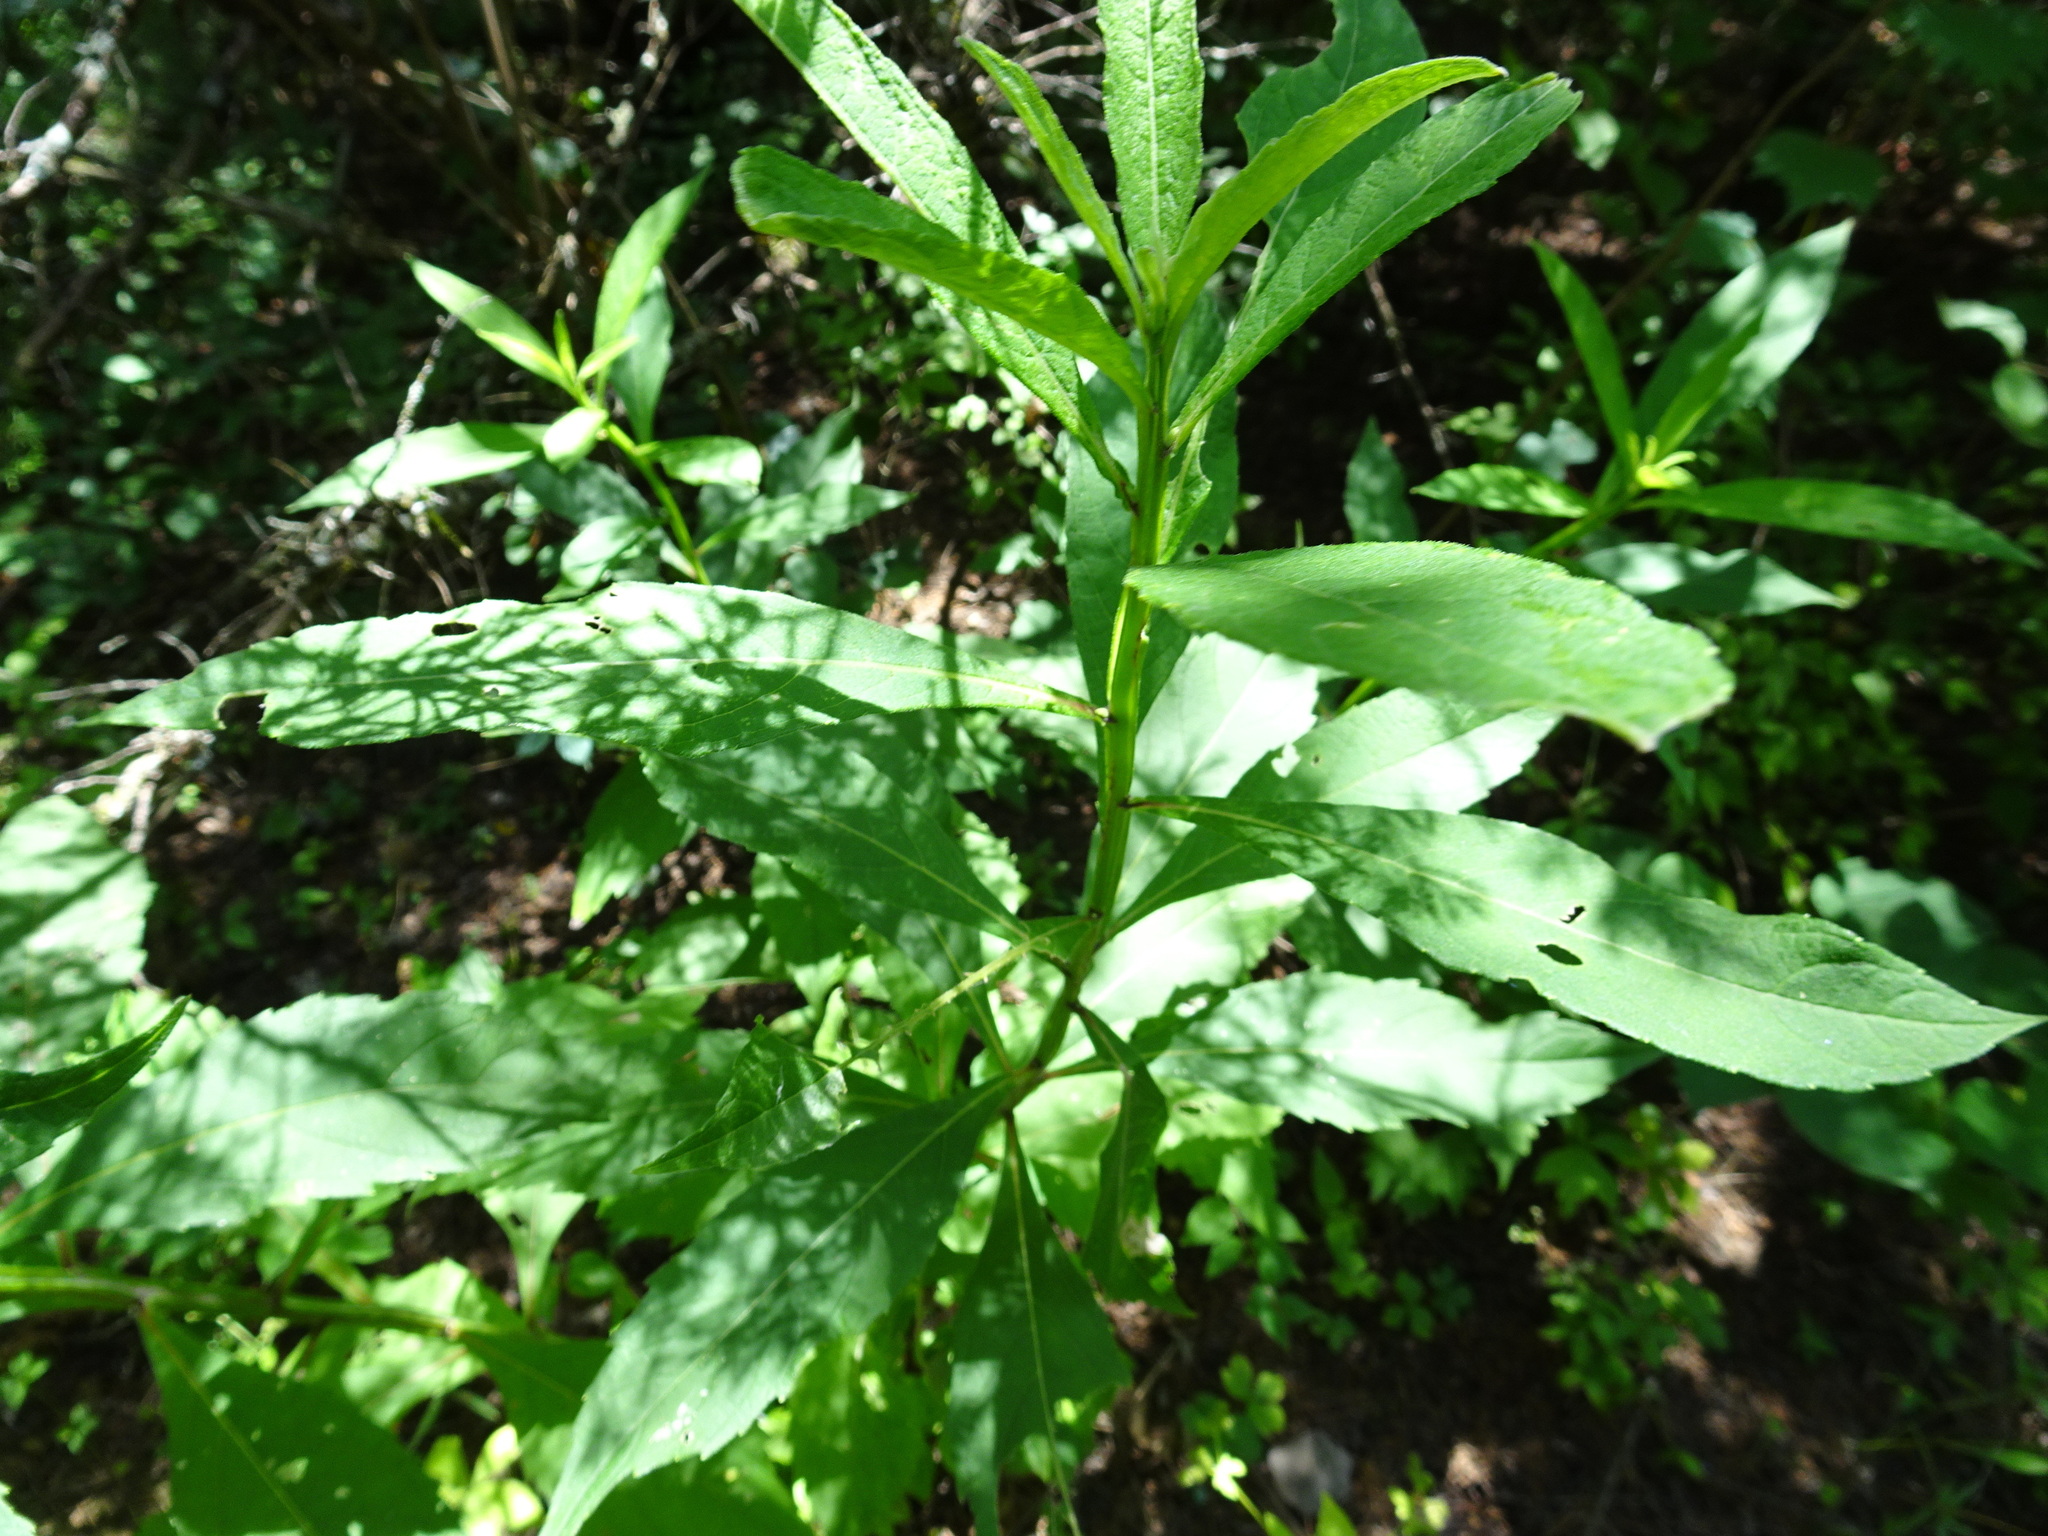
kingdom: Plantae
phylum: Tracheophyta
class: Magnoliopsida
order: Asterales
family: Asteraceae
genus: Verbesina
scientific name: Verbesina alternifolia
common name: Wingstem
